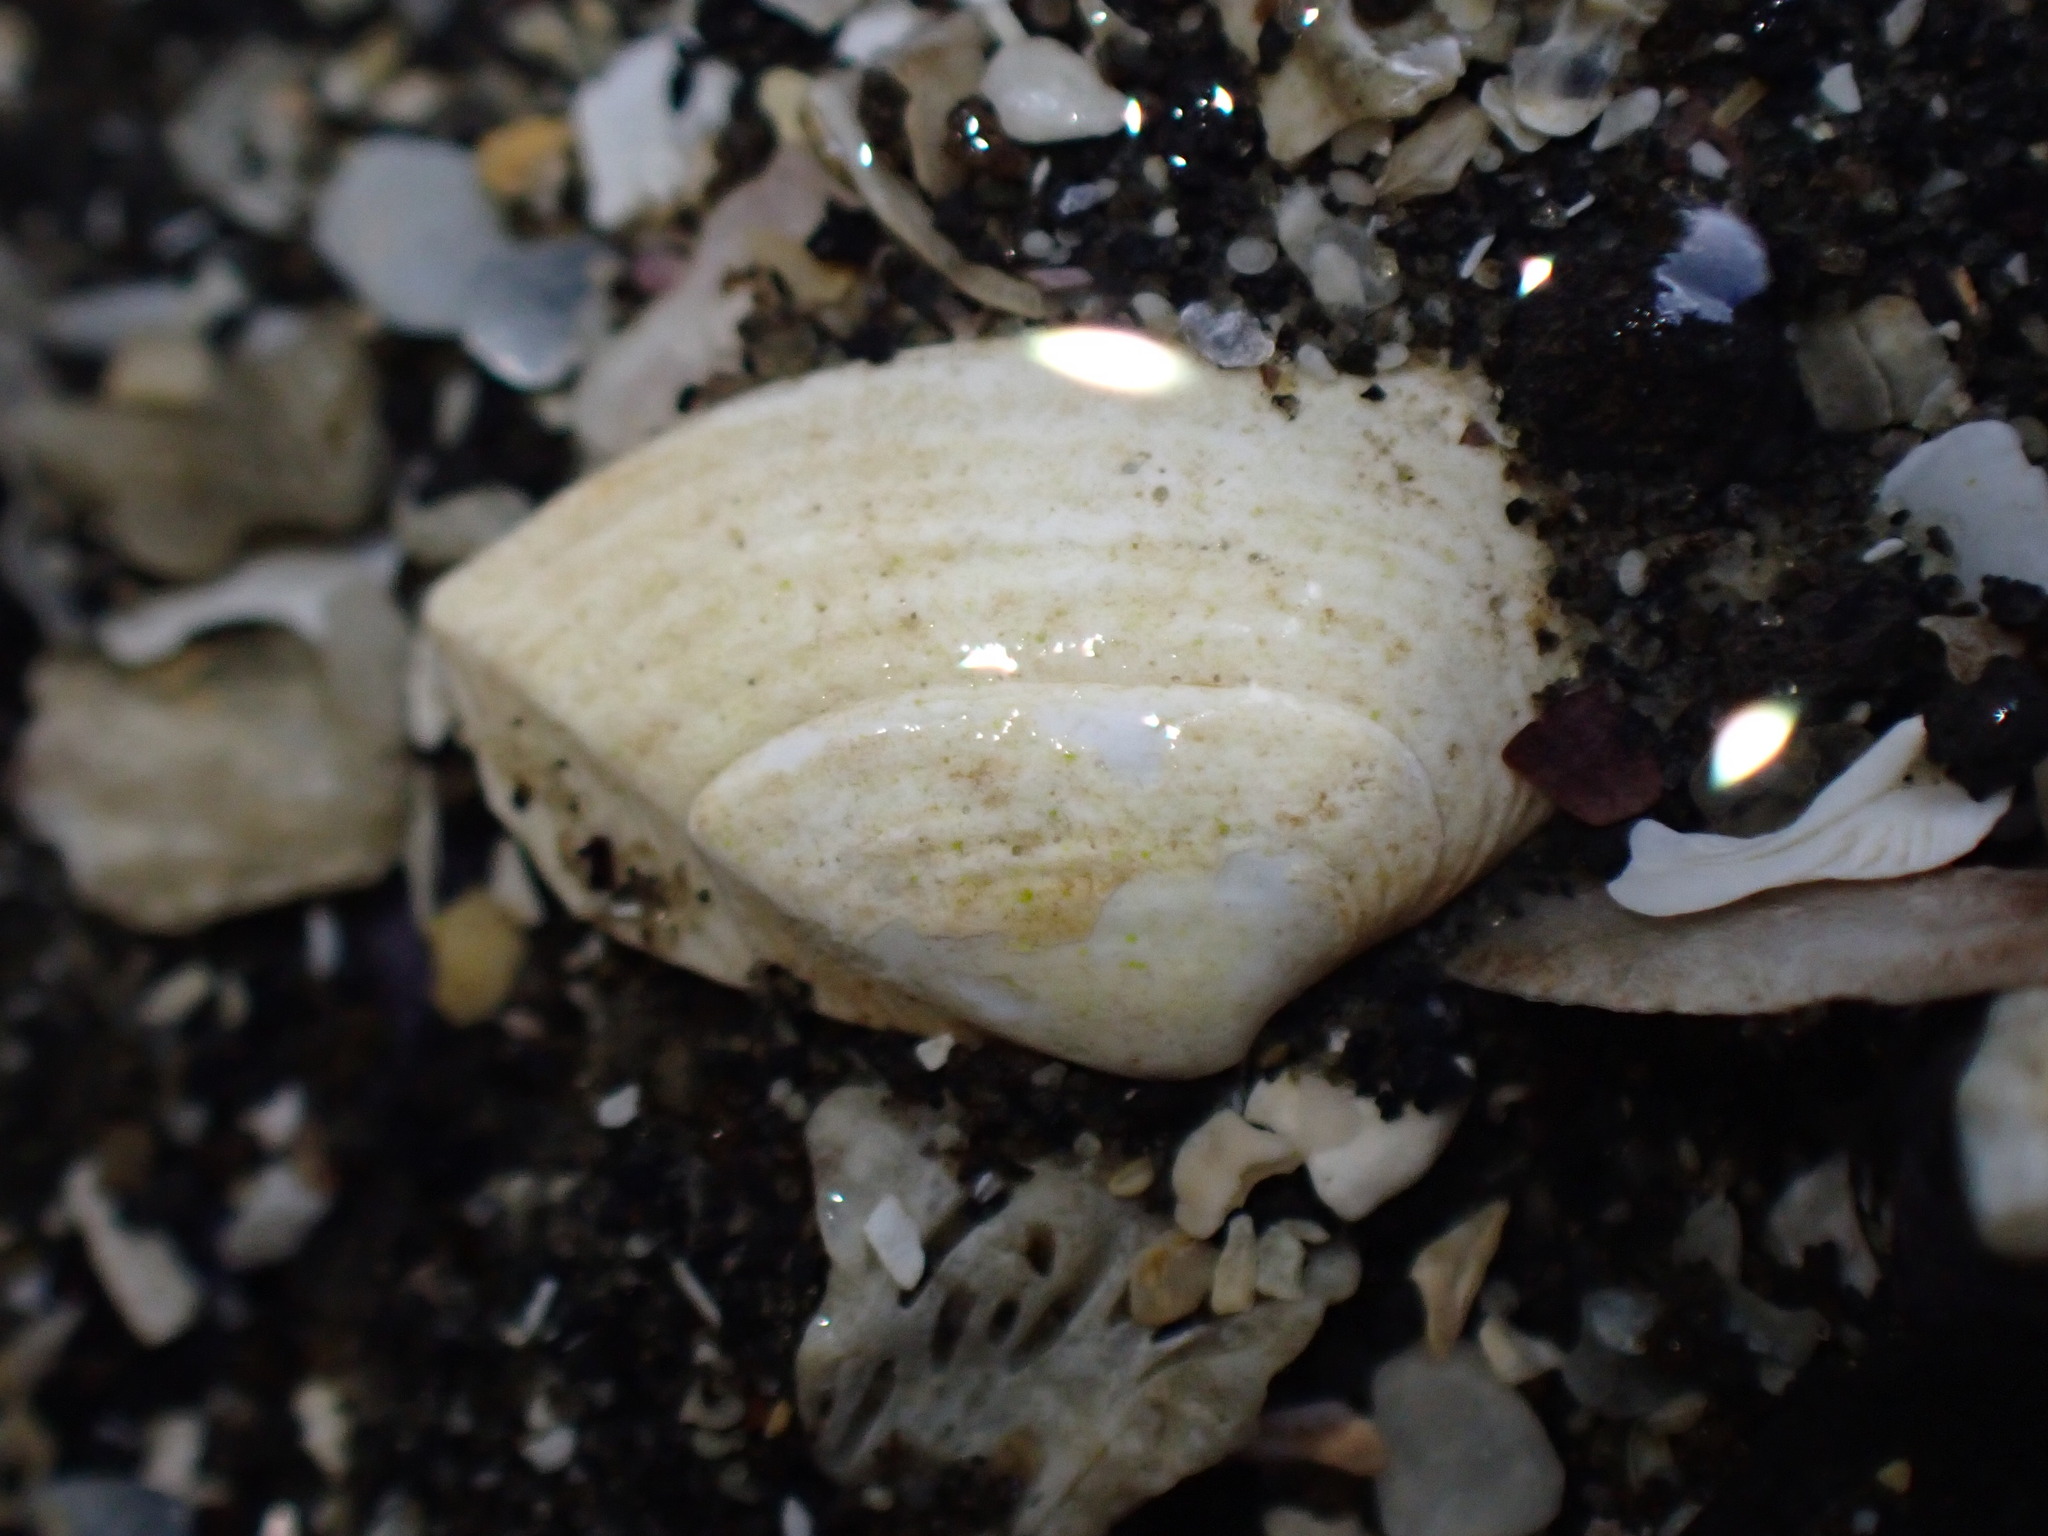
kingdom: Animalia
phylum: Mollusca
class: Bivalvia
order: Myida
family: Corbulidae
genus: Corbula
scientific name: Corbula zelandica
